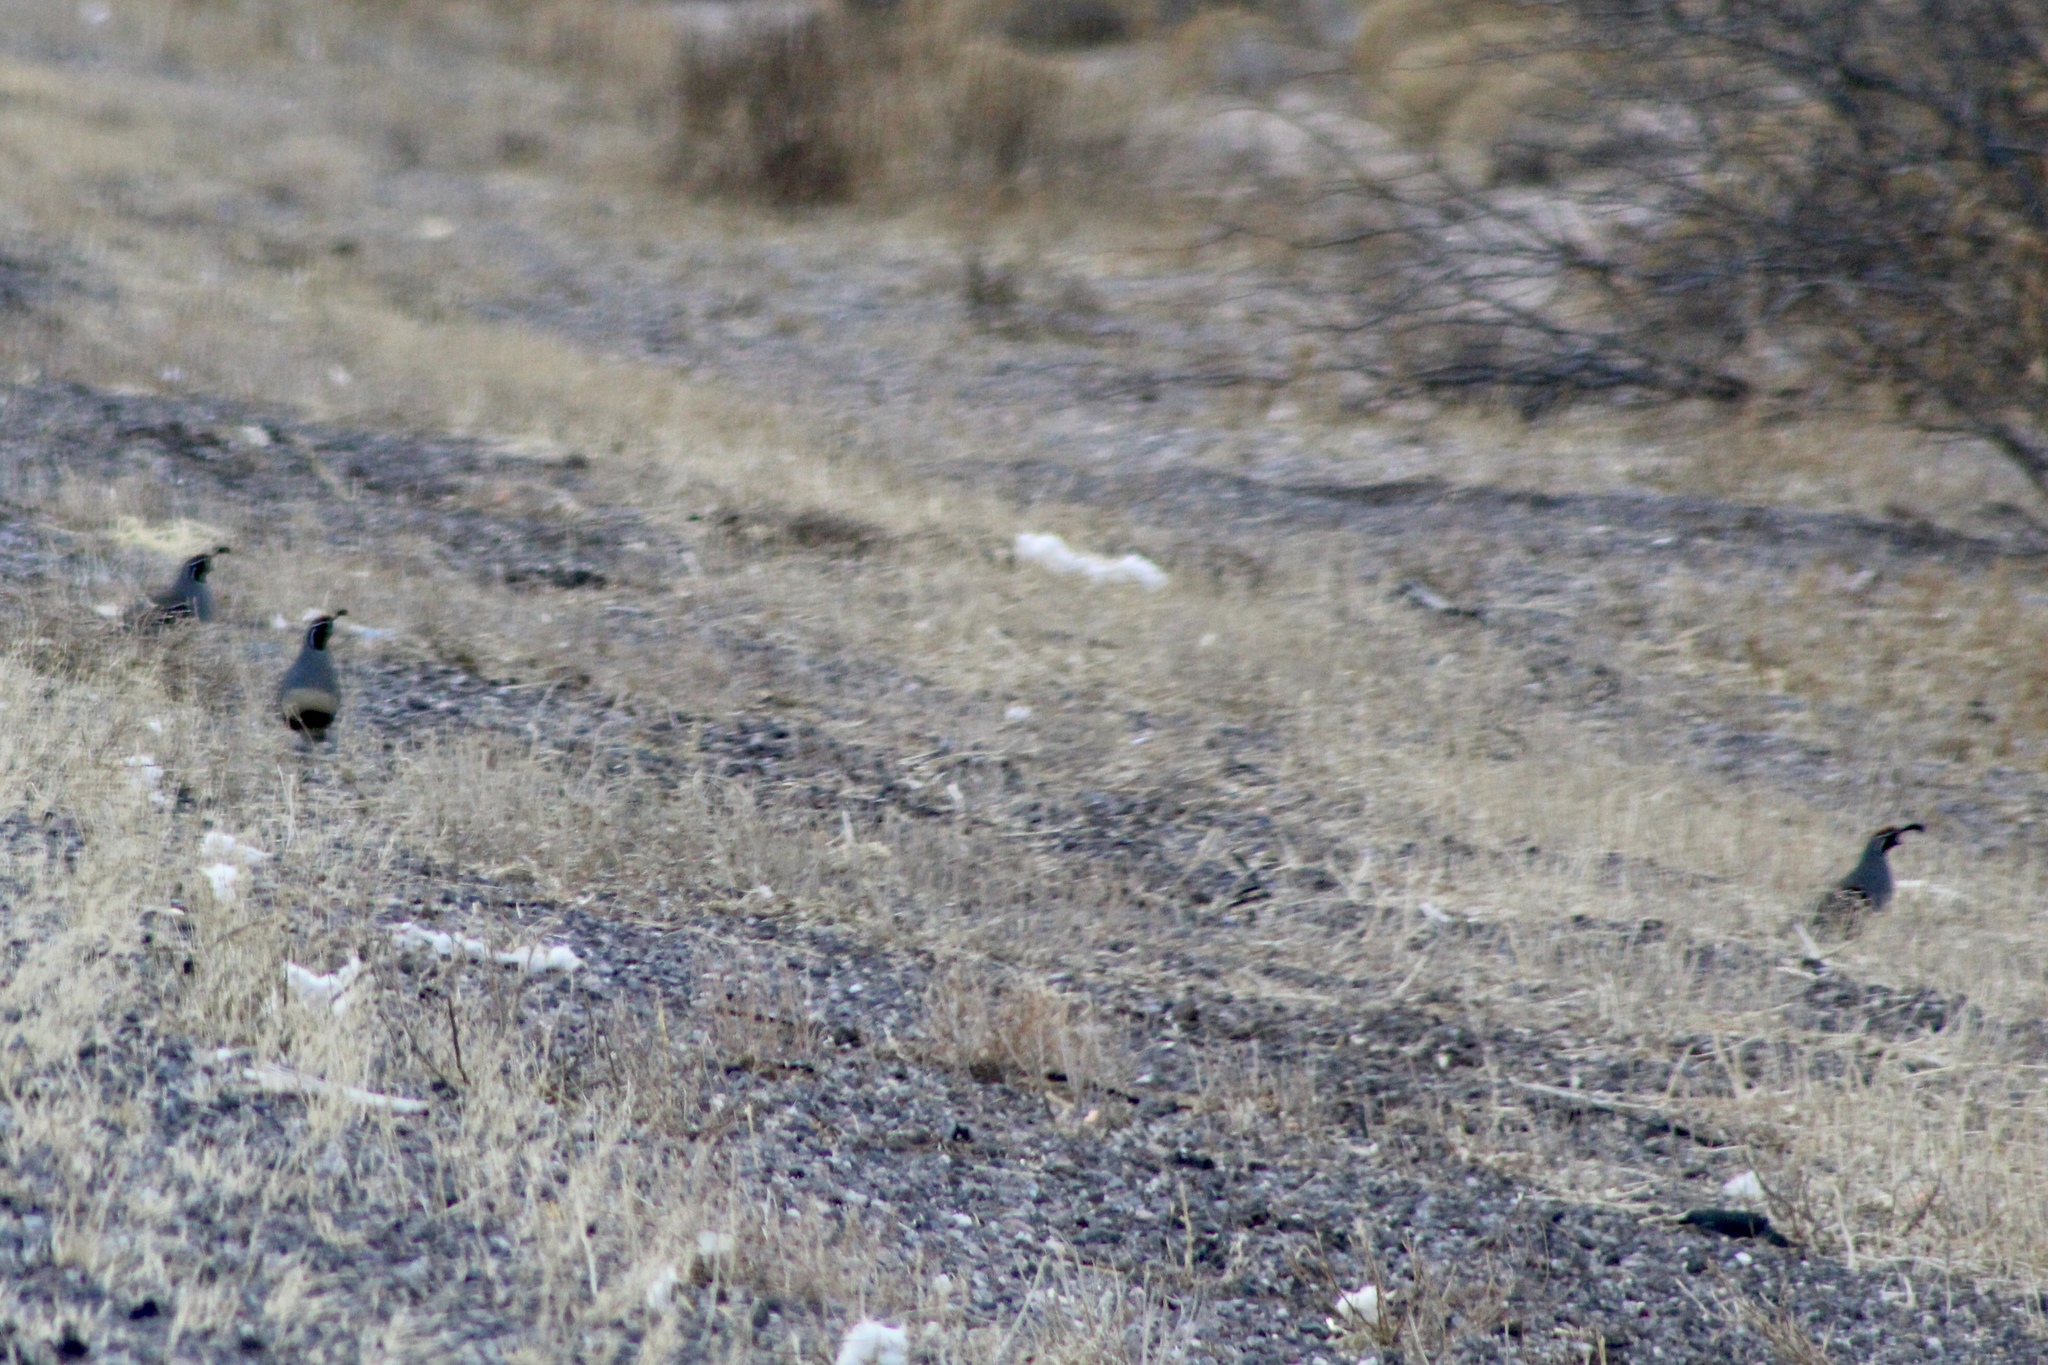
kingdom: Animalia
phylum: Chordata
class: Aves
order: Galliformes
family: Odontophoridae
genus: Callipepla
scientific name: Callipepla gambelii
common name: Gambel's quail
